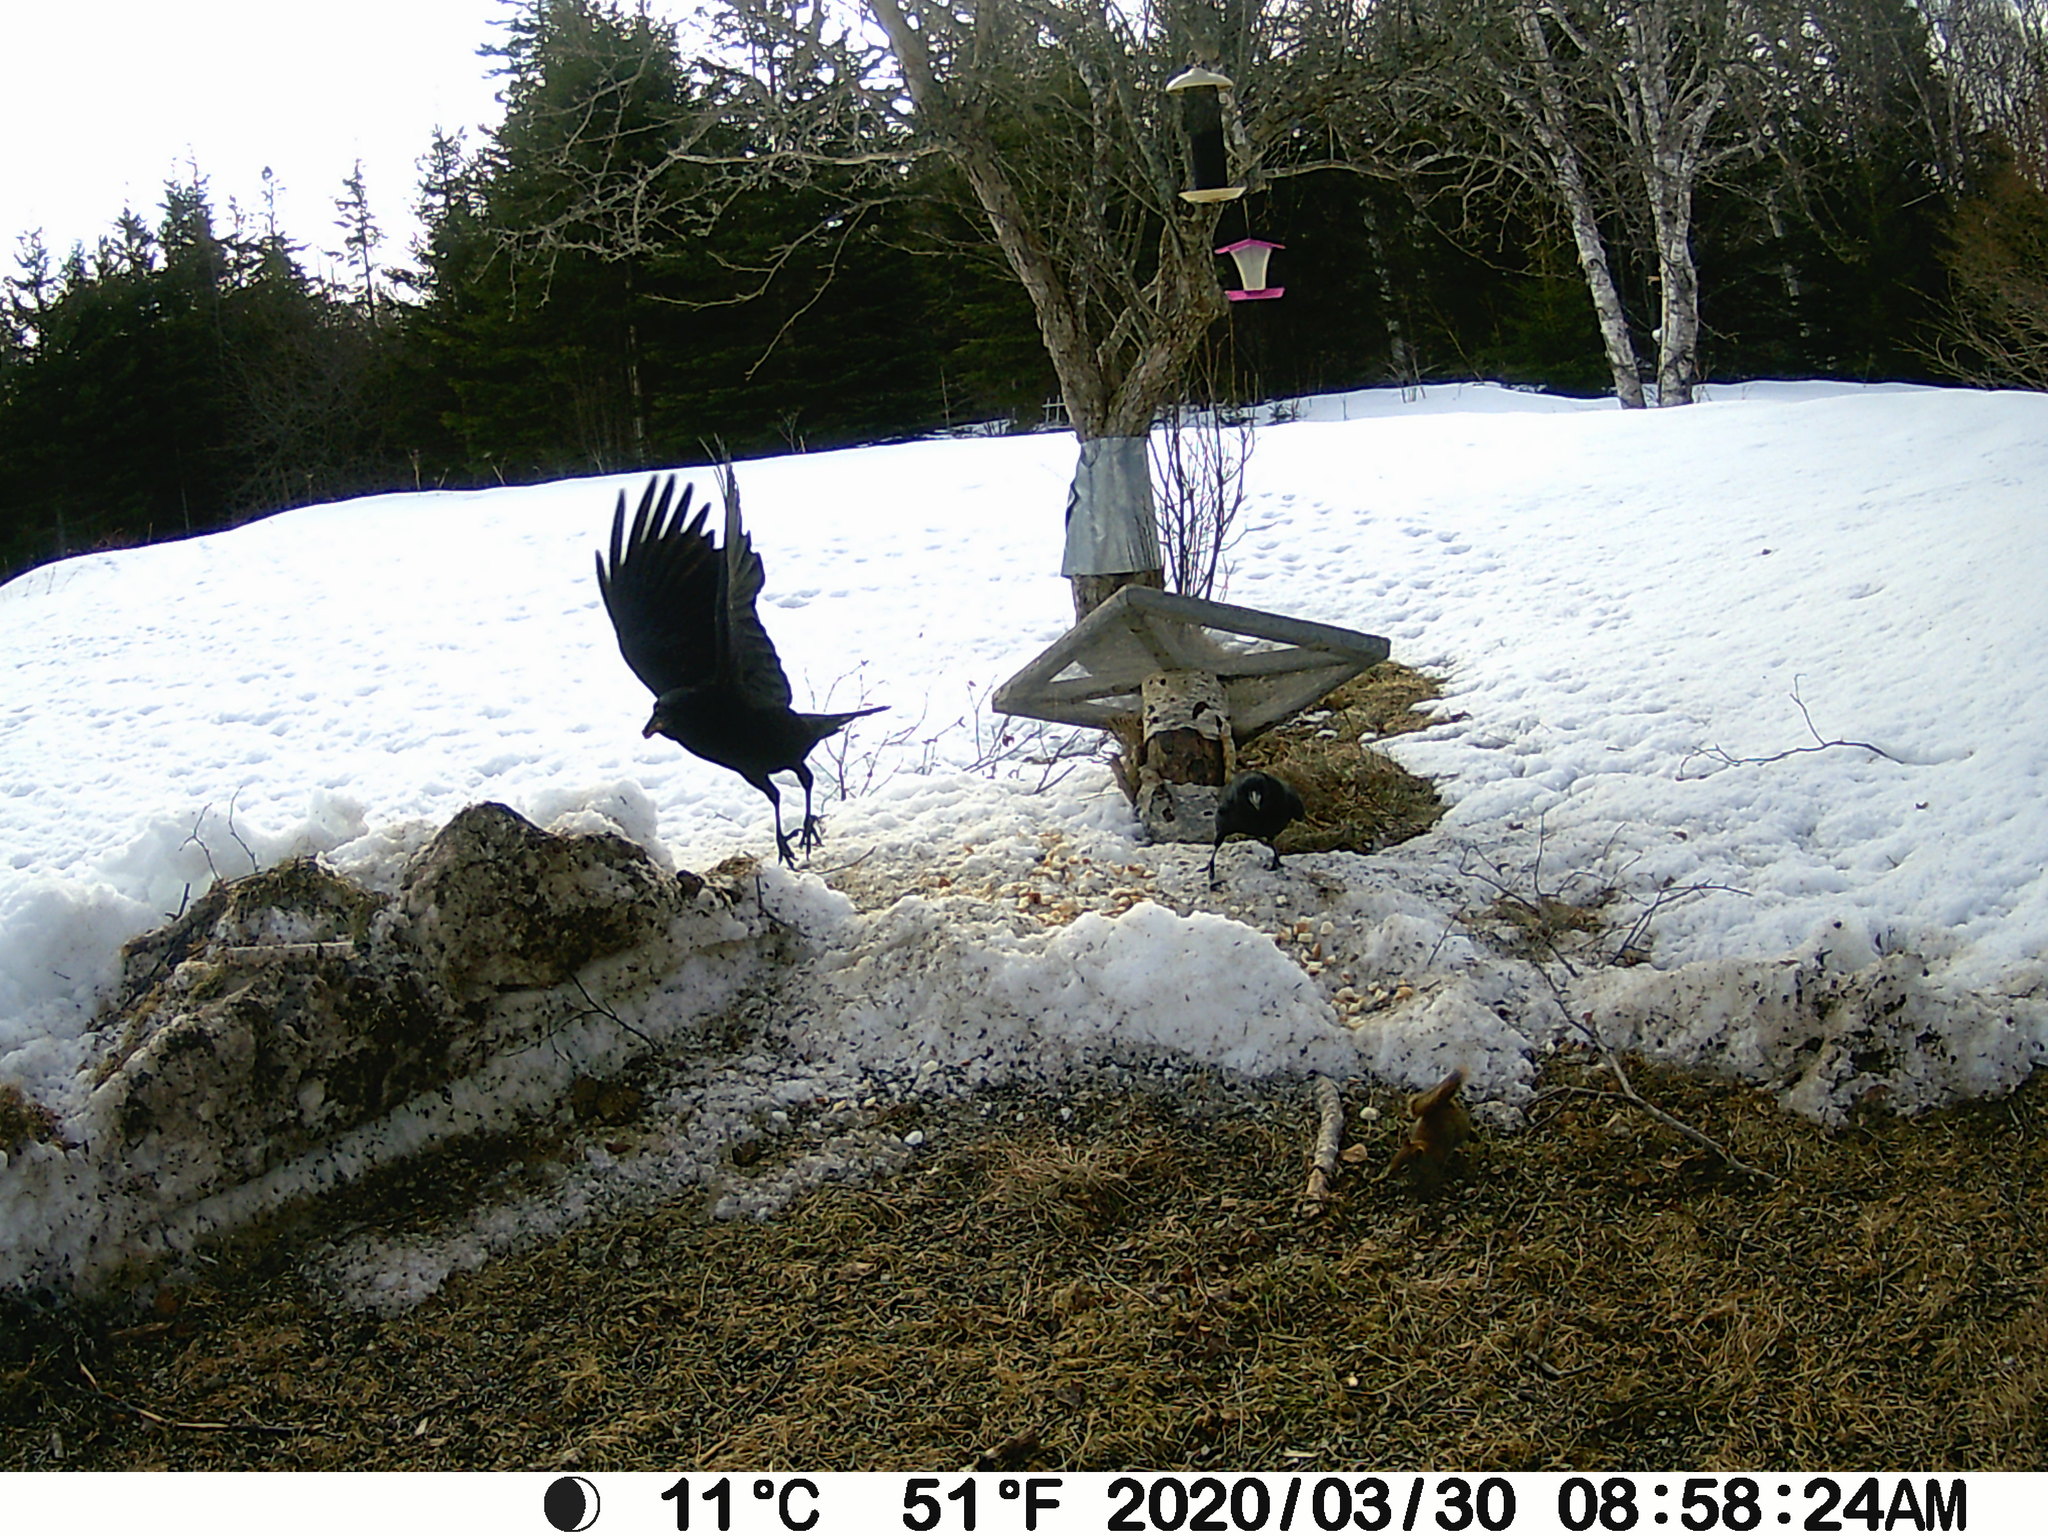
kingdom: Animalia
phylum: Chordata
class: Aves
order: Passeriformes
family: Corvidae
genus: Corvus
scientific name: Corvus brachyrhynchos
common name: American crow
